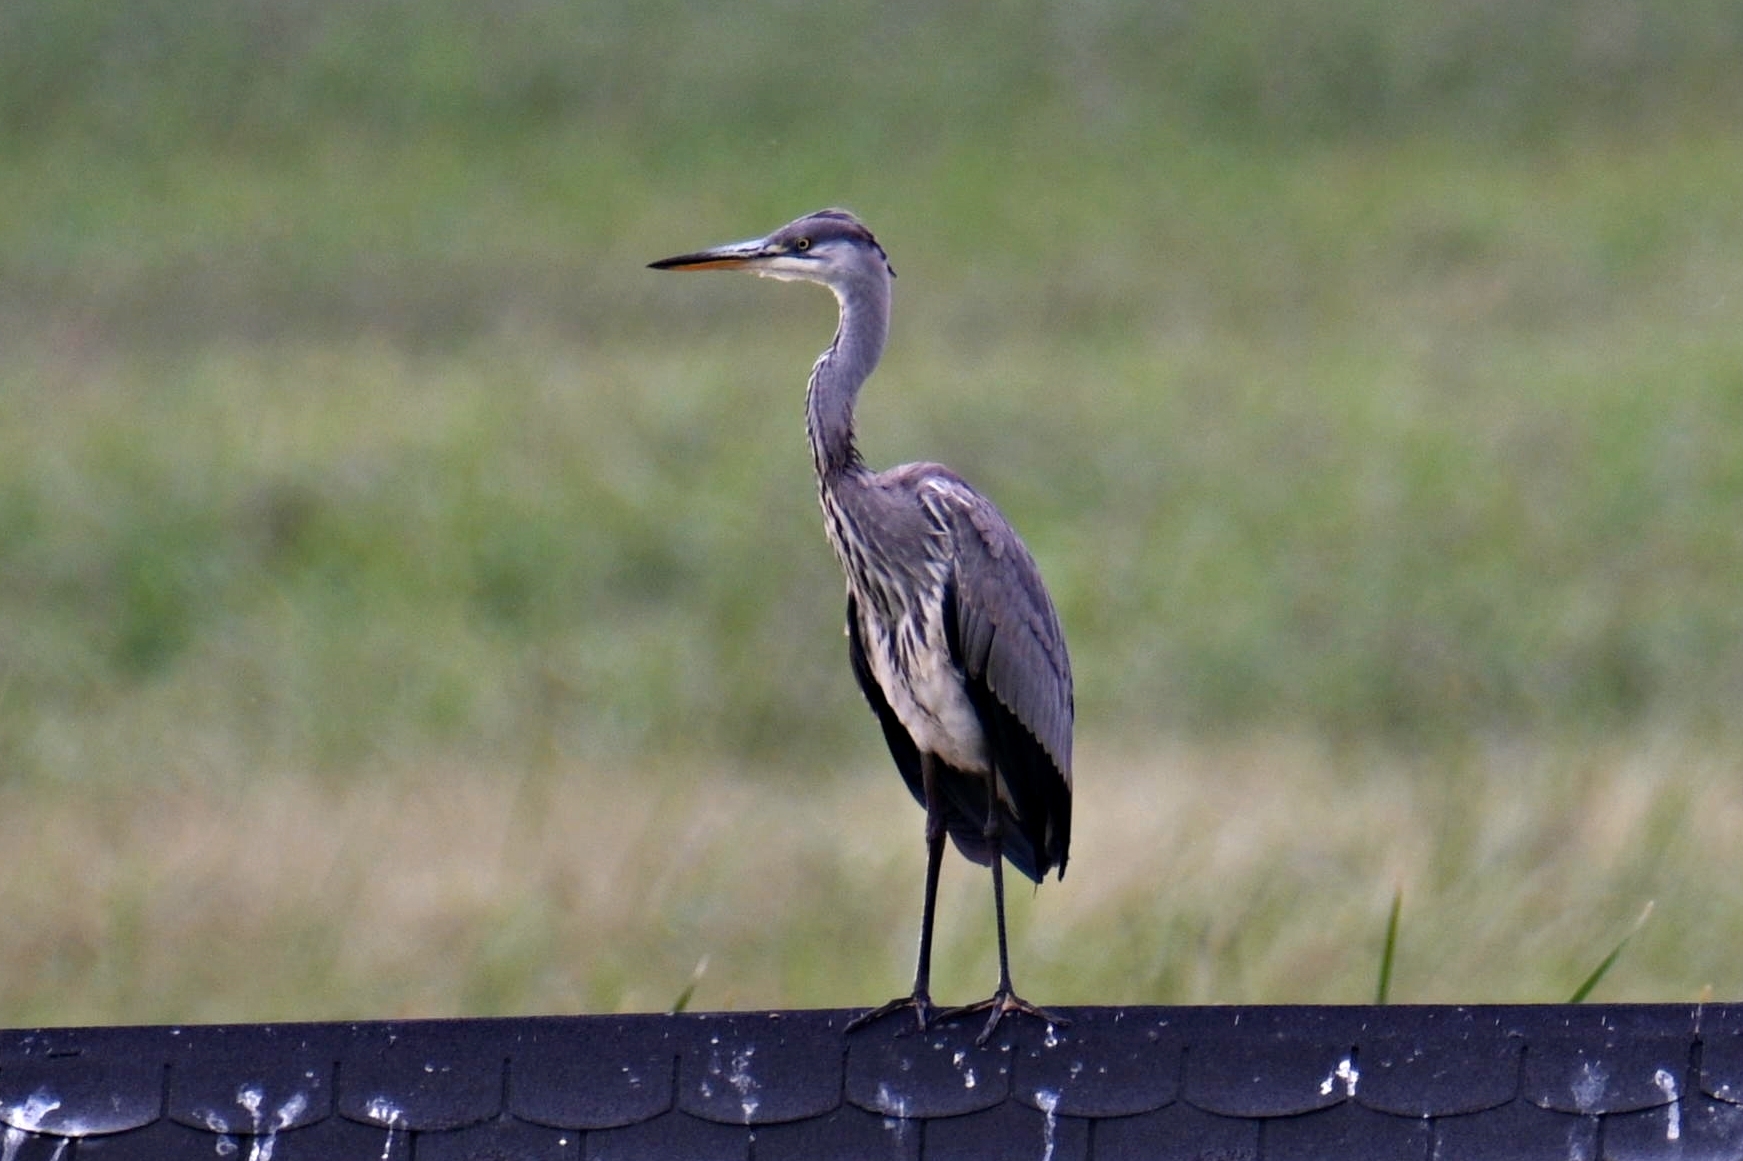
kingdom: Animalia
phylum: Chordata
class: Aves
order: Pelecaniformes
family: Ardeidae
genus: Ardea
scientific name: Ardea cinerea
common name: Grey heron
